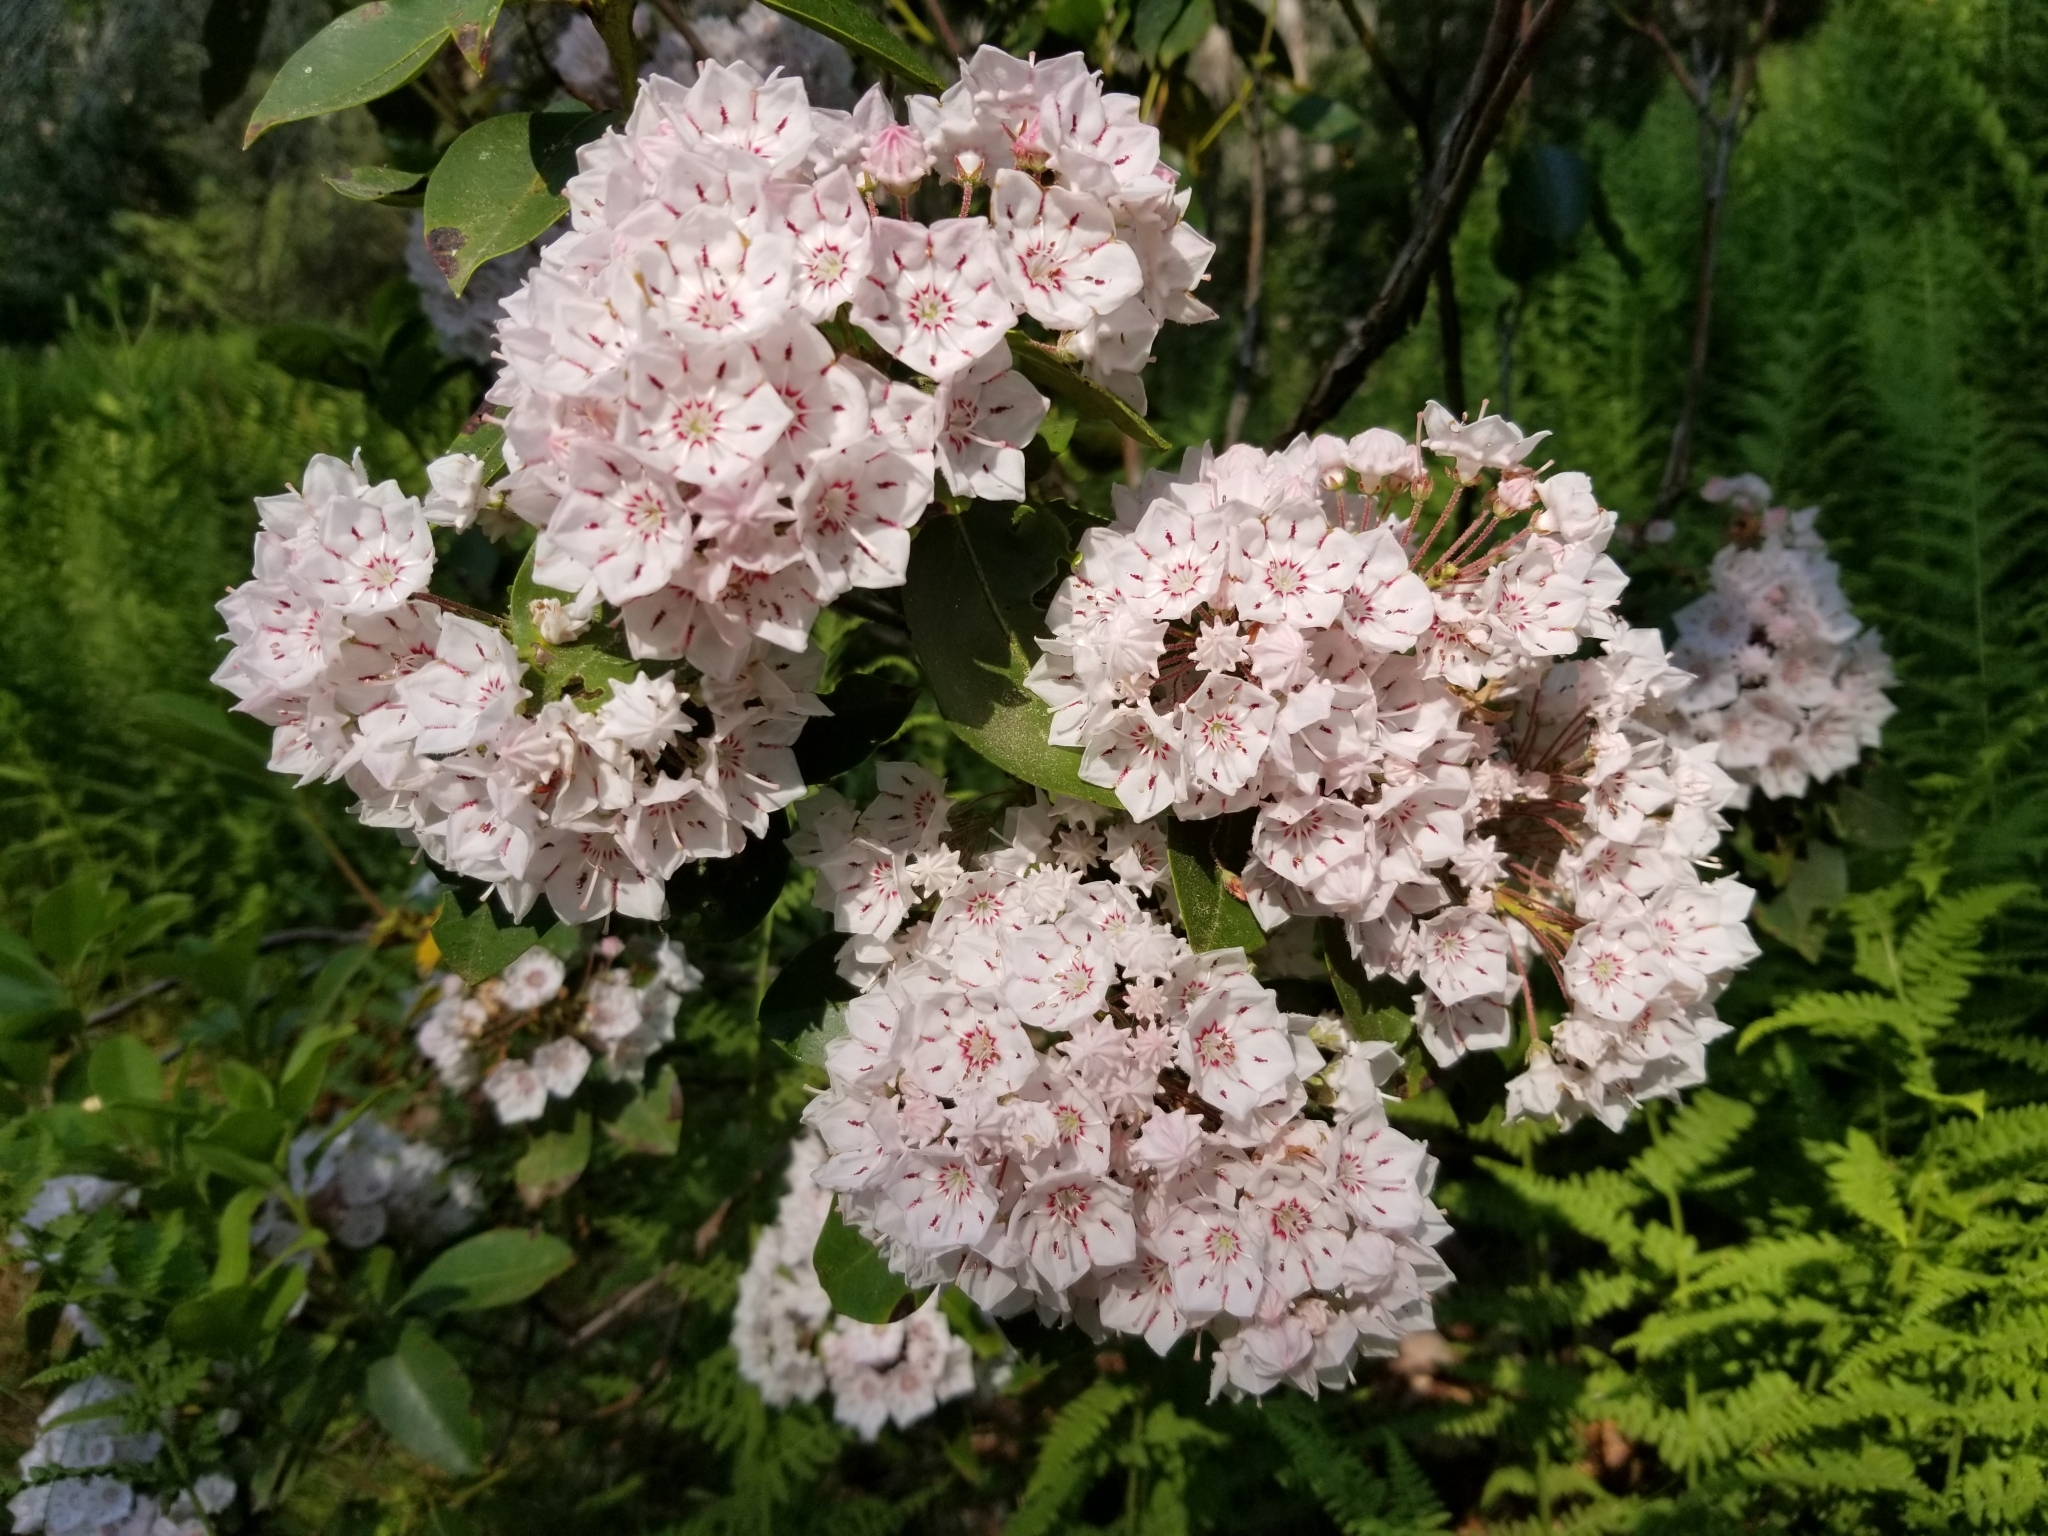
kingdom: Plantae
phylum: Tracheophyta
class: Magnoliopsida
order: Ericales
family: Ericaceae
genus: Kalmia
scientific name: Kalmia latifolia
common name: Mountain-laurel
